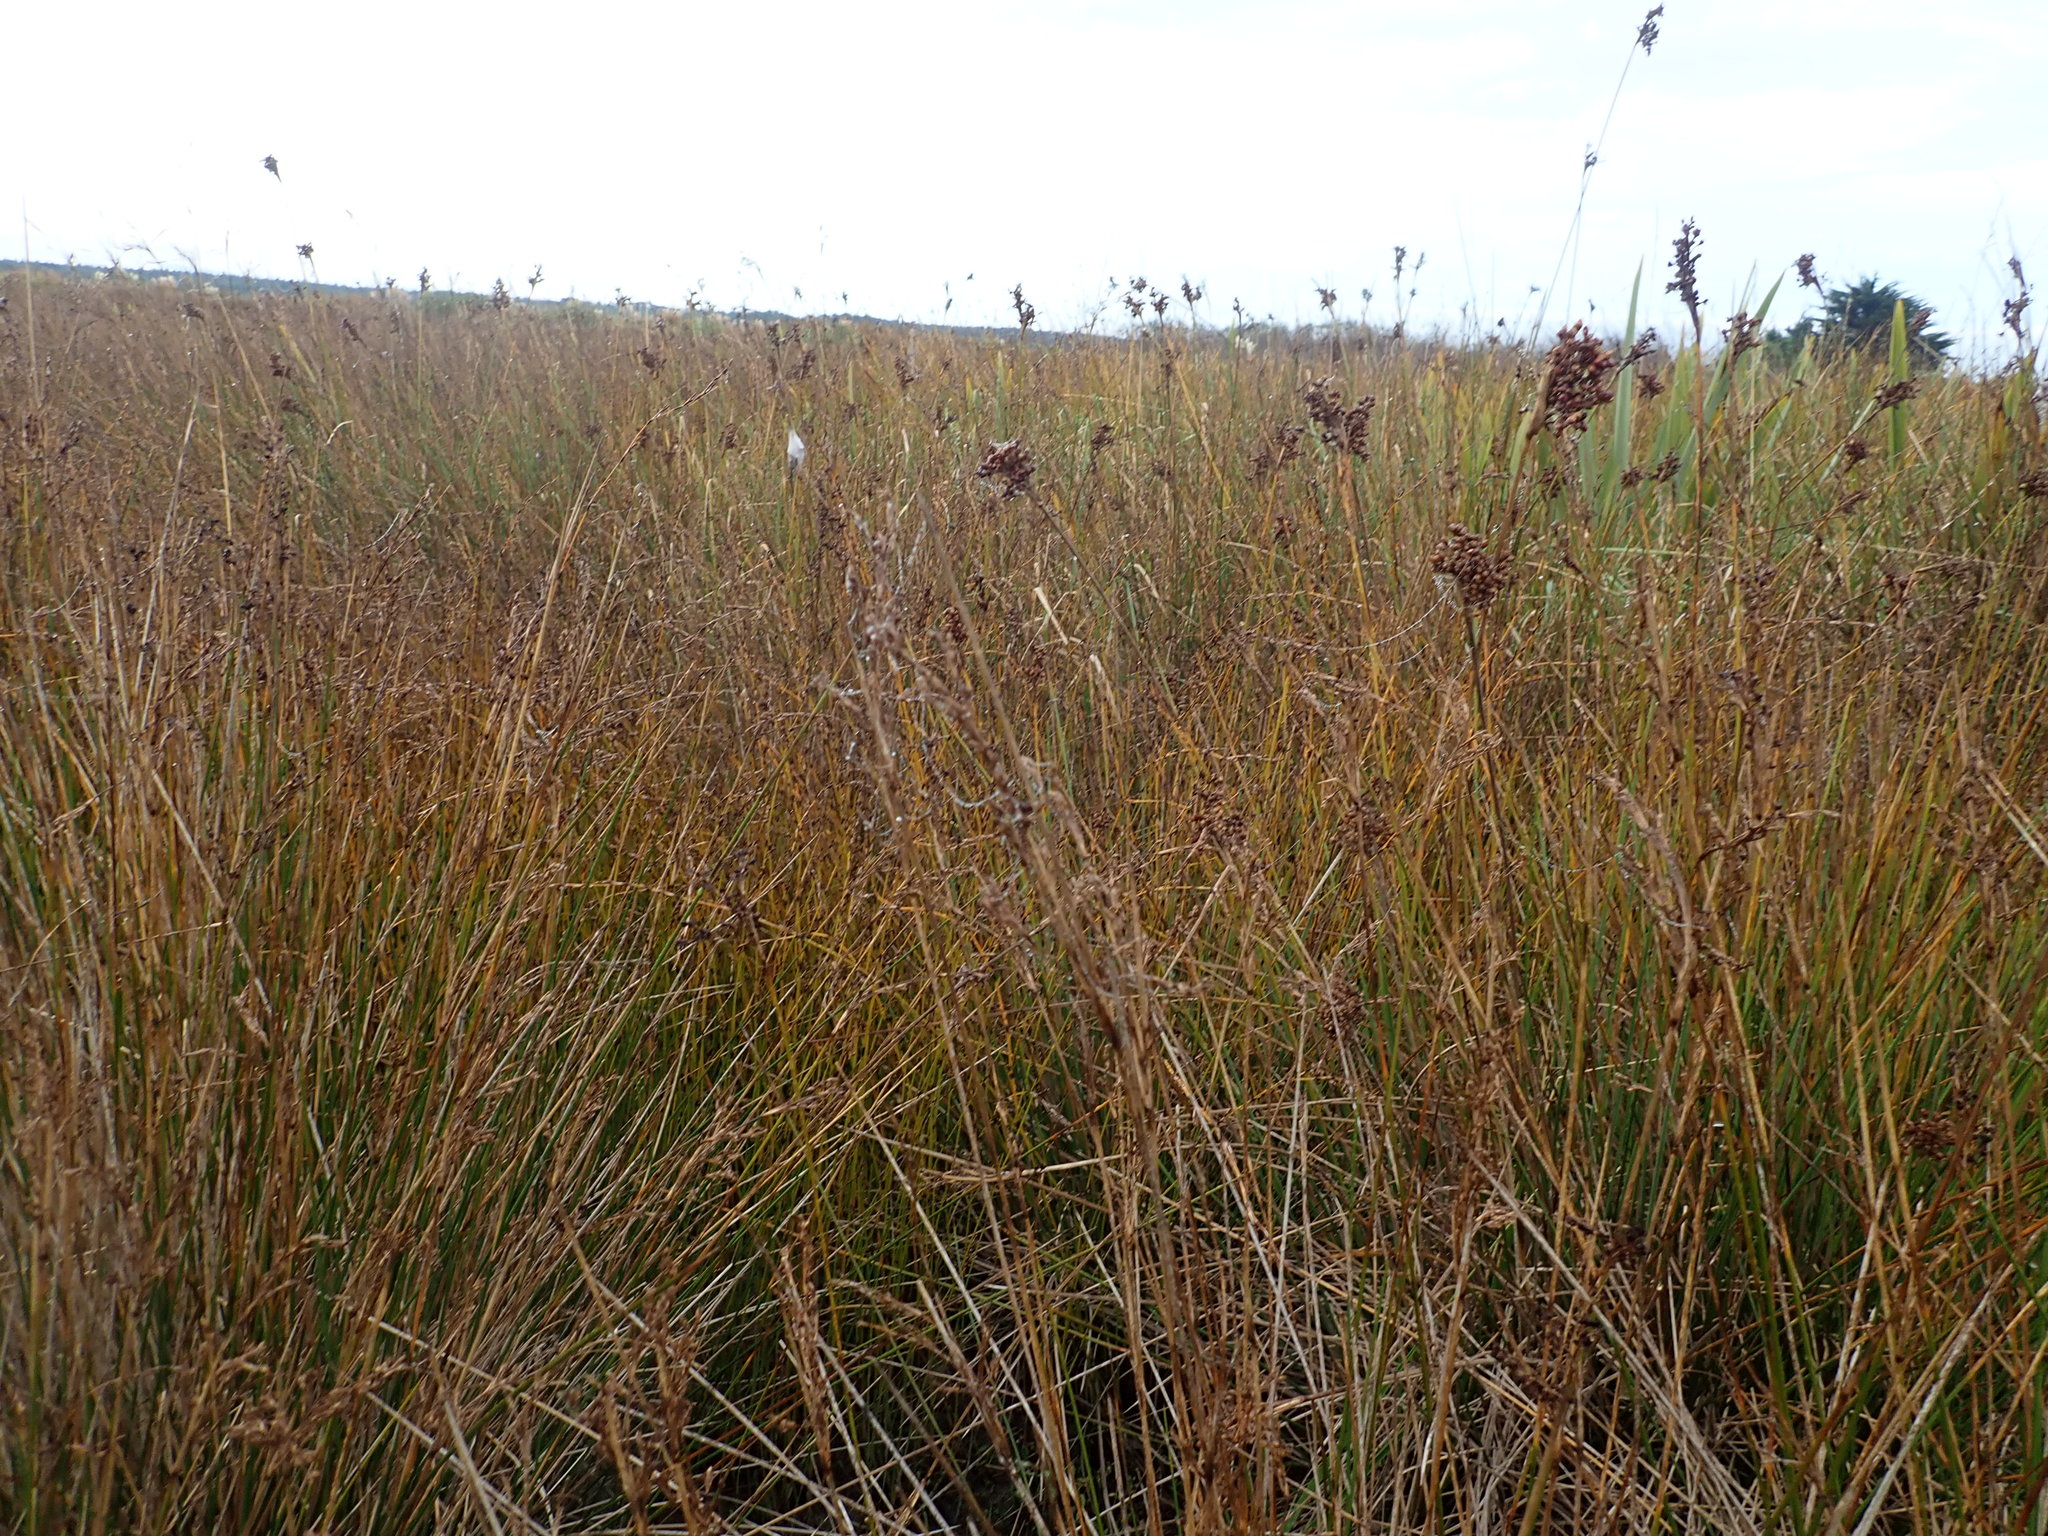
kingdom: Plantae
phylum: Tracheophyta
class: Liliopsida
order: Poales
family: Juncaceae
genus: Juncus
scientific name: Juncus acutus
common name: Sharp rush
